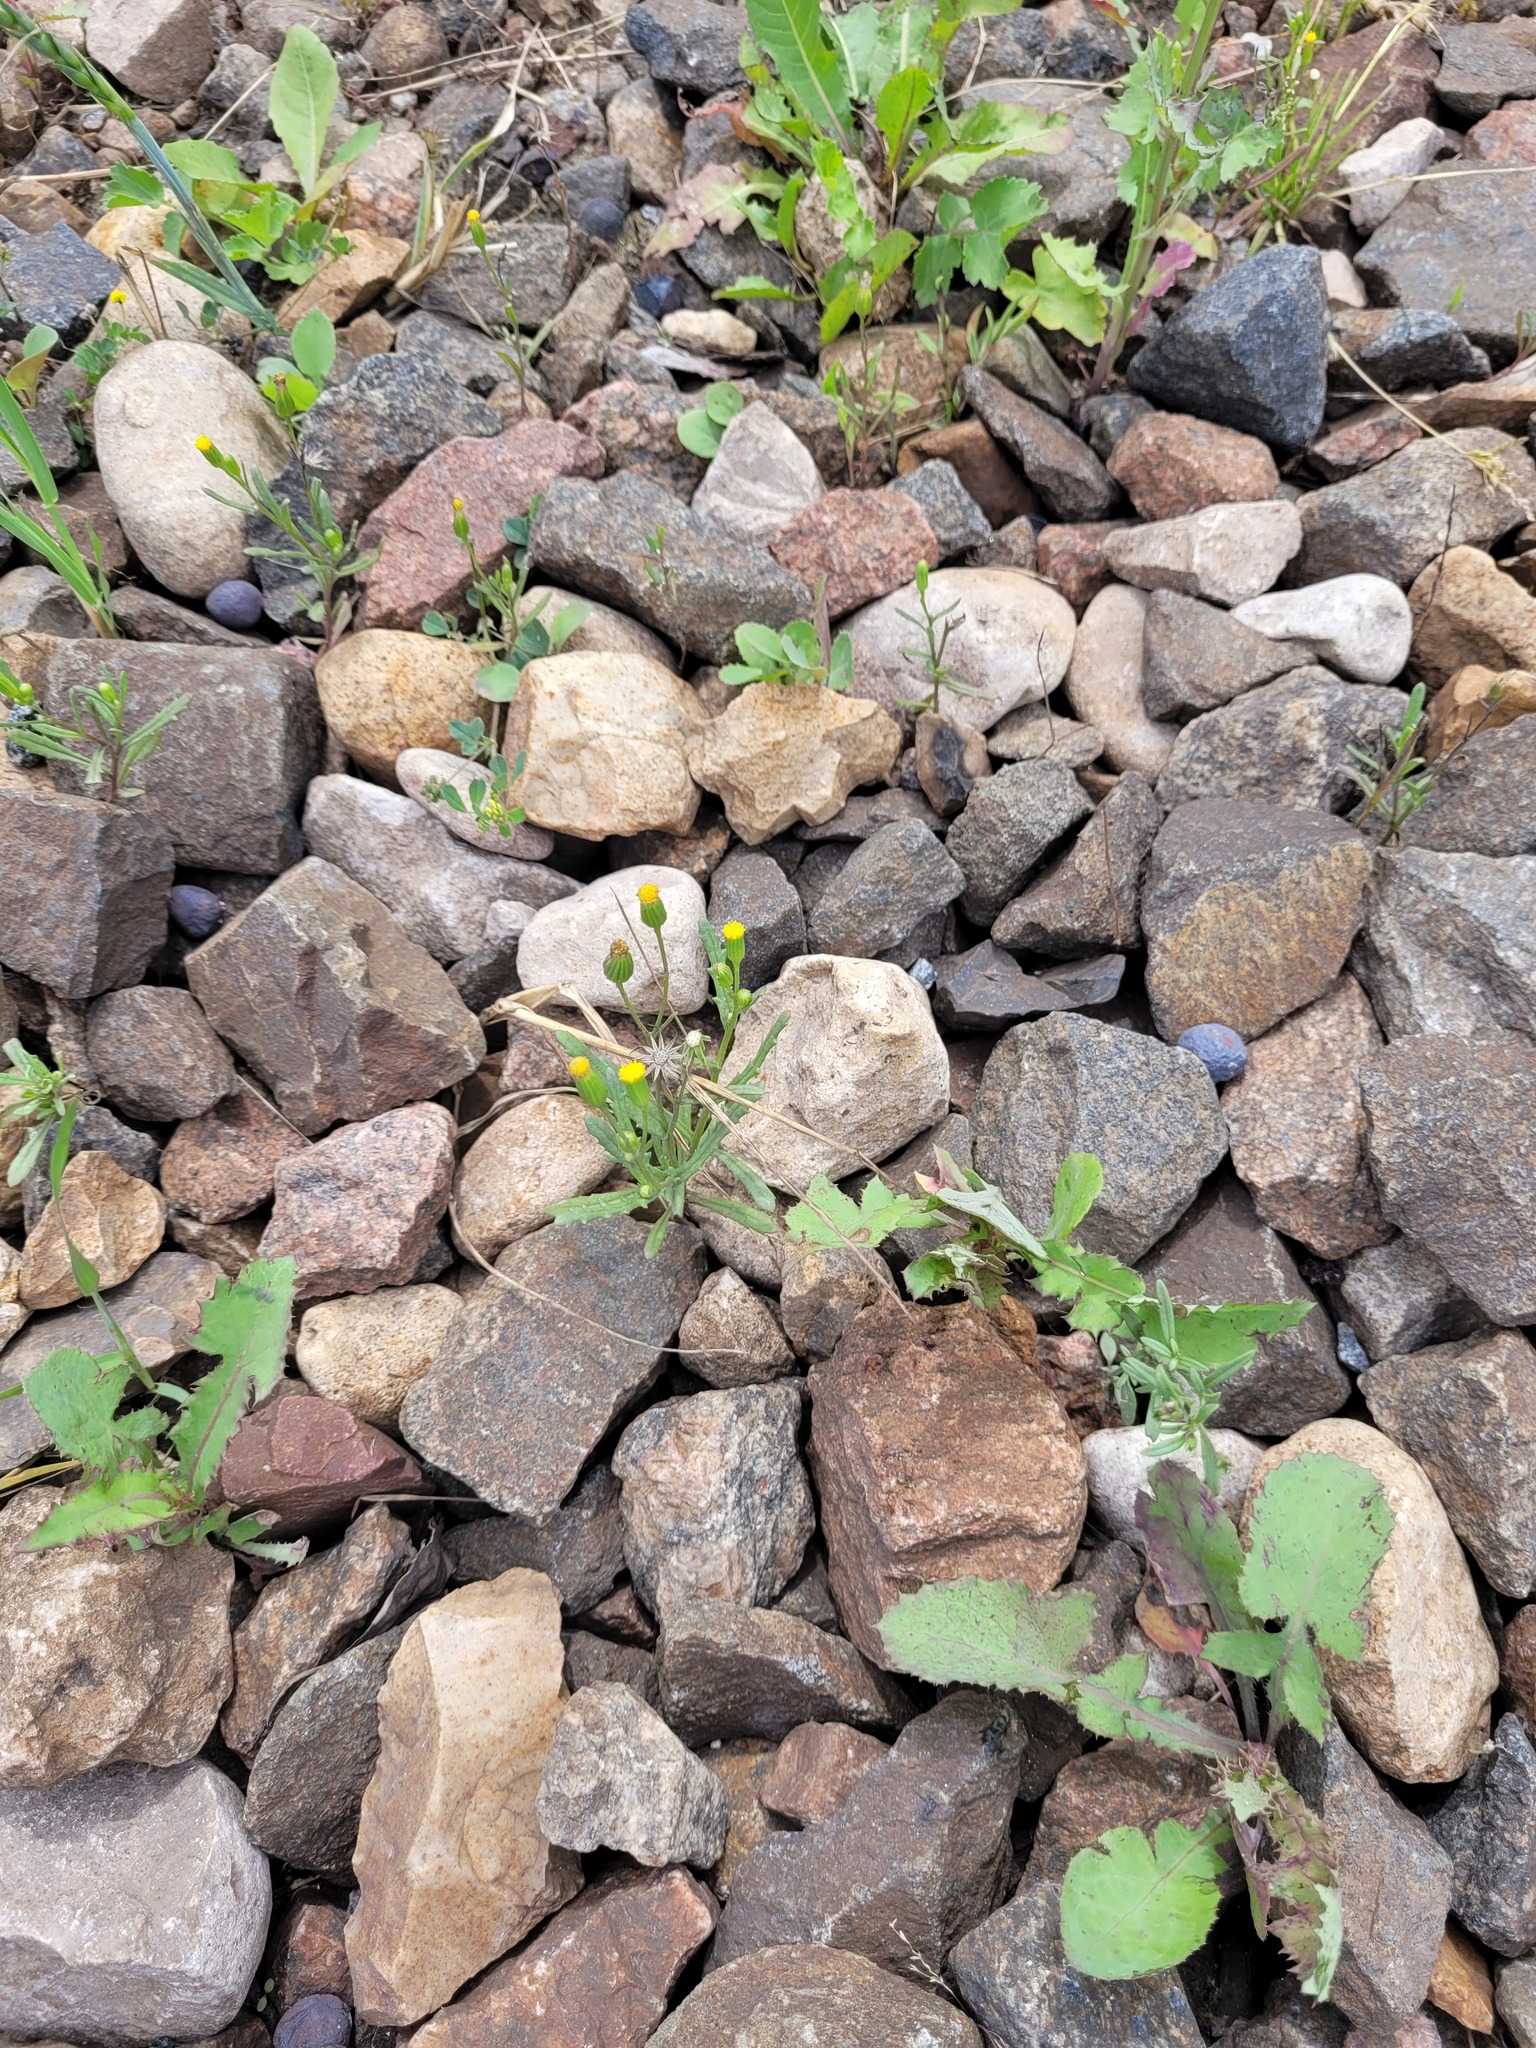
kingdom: Plantae
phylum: Tracheophyta
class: Magnoliopsida
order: Asterales
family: Asteraceae
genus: Senecio
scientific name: Senecio dubitabilis
